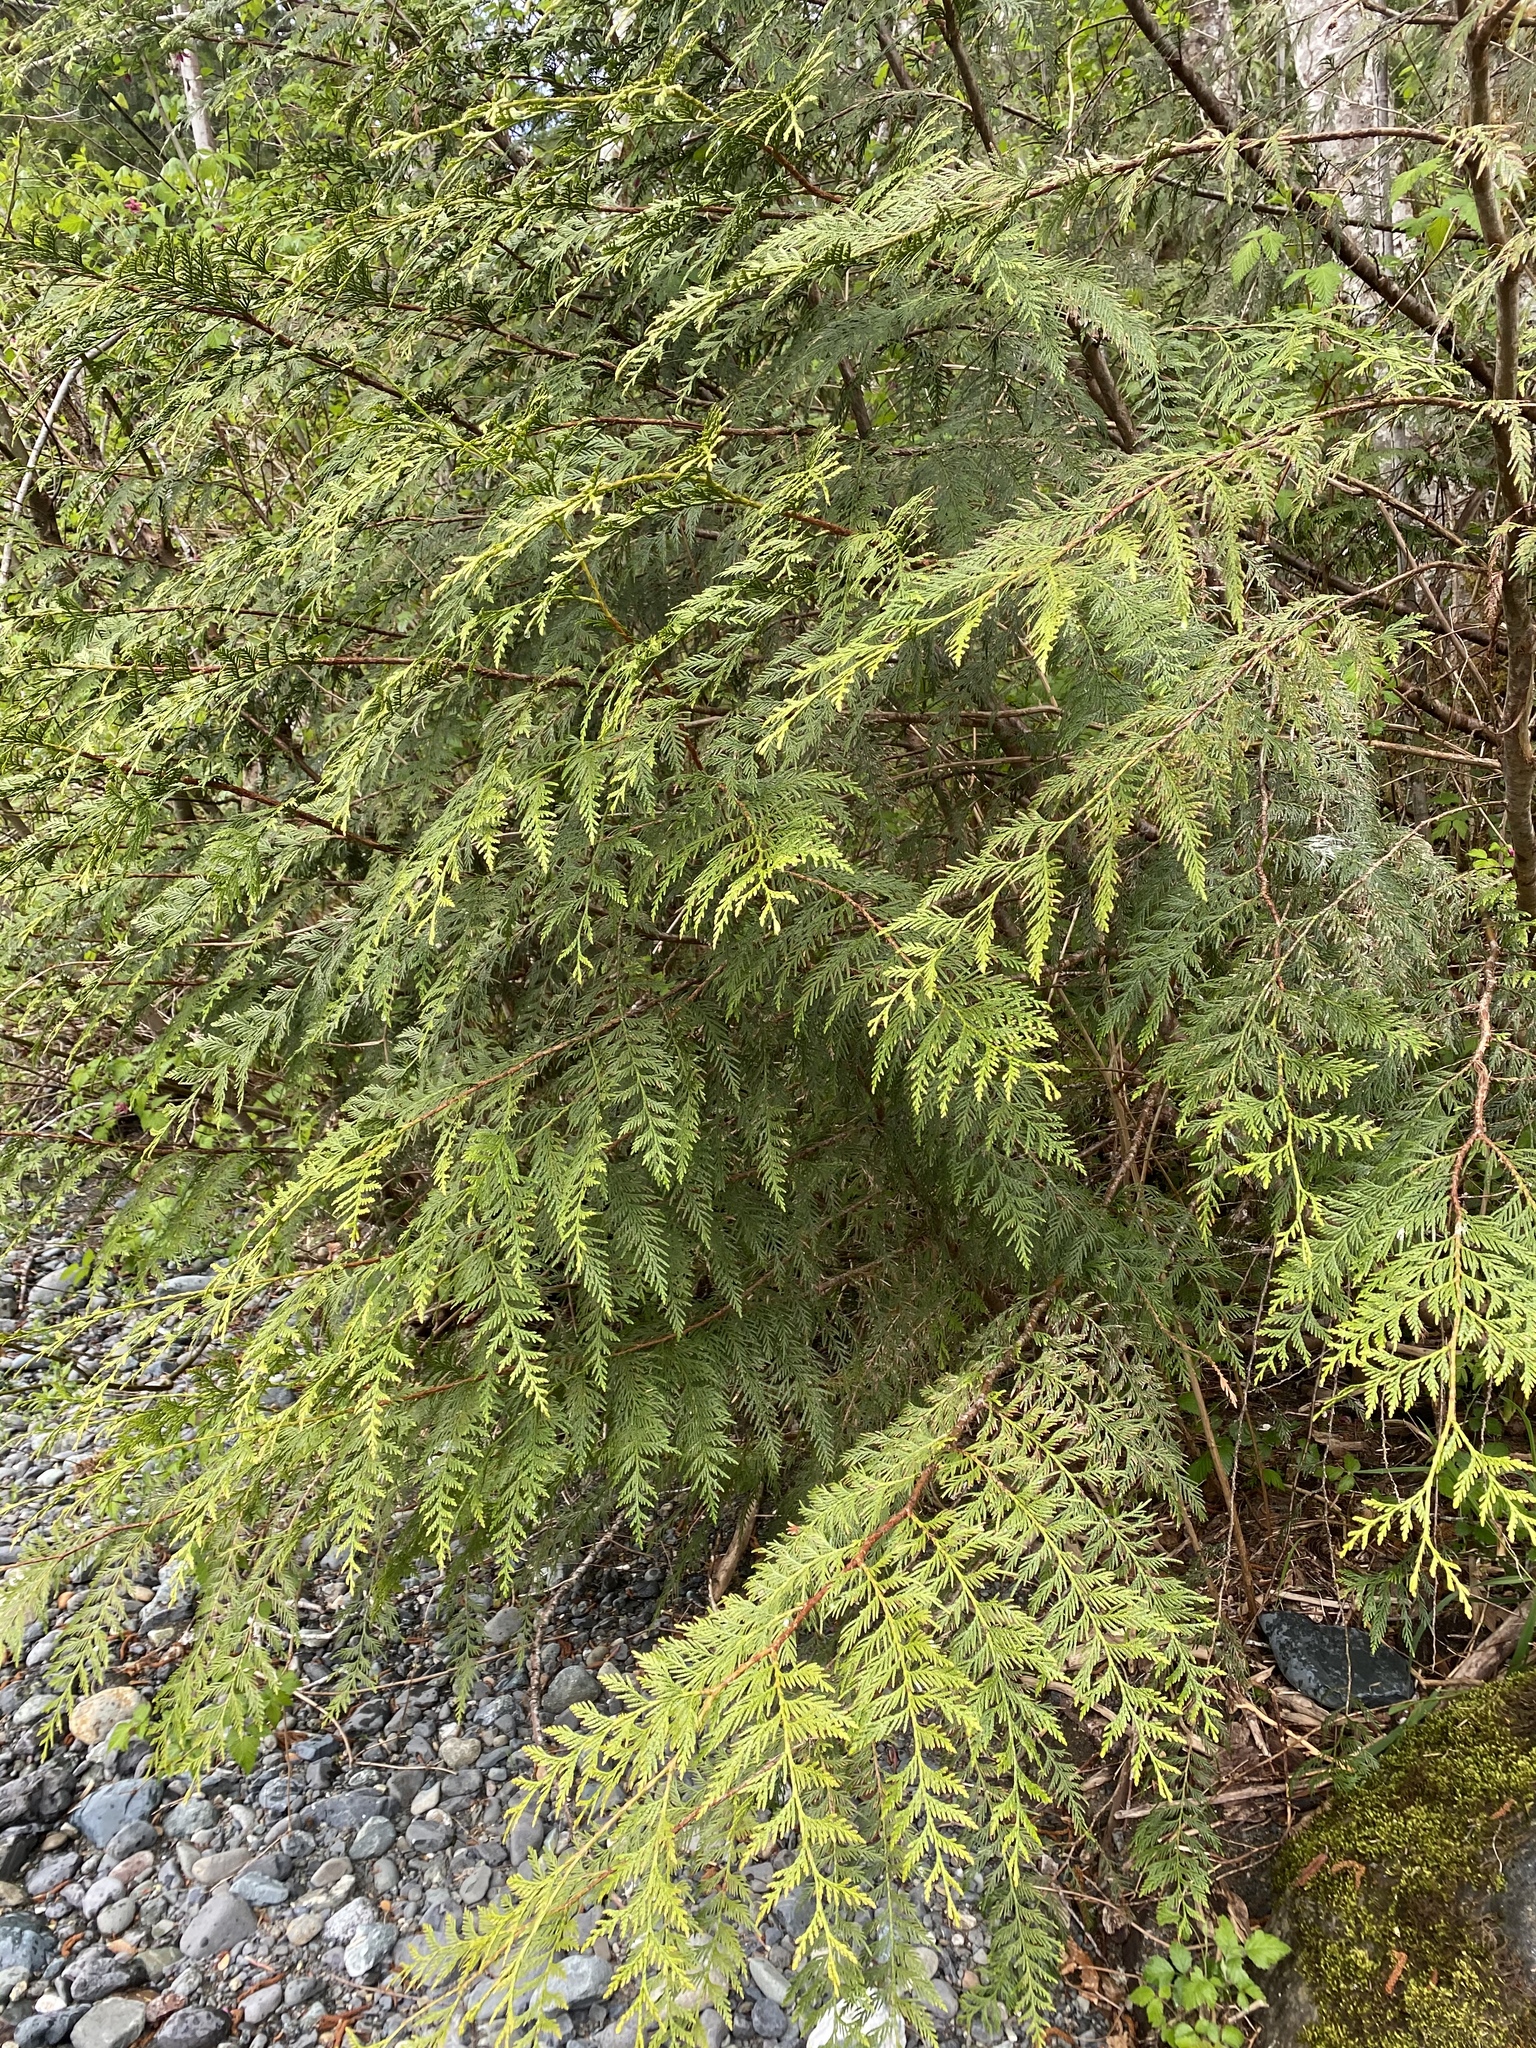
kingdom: Plantae
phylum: Tracheophyta
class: Pinopsida
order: Pinales
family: Cupressaceae
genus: Thuja
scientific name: Thuja plicata
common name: Western red-cedar
